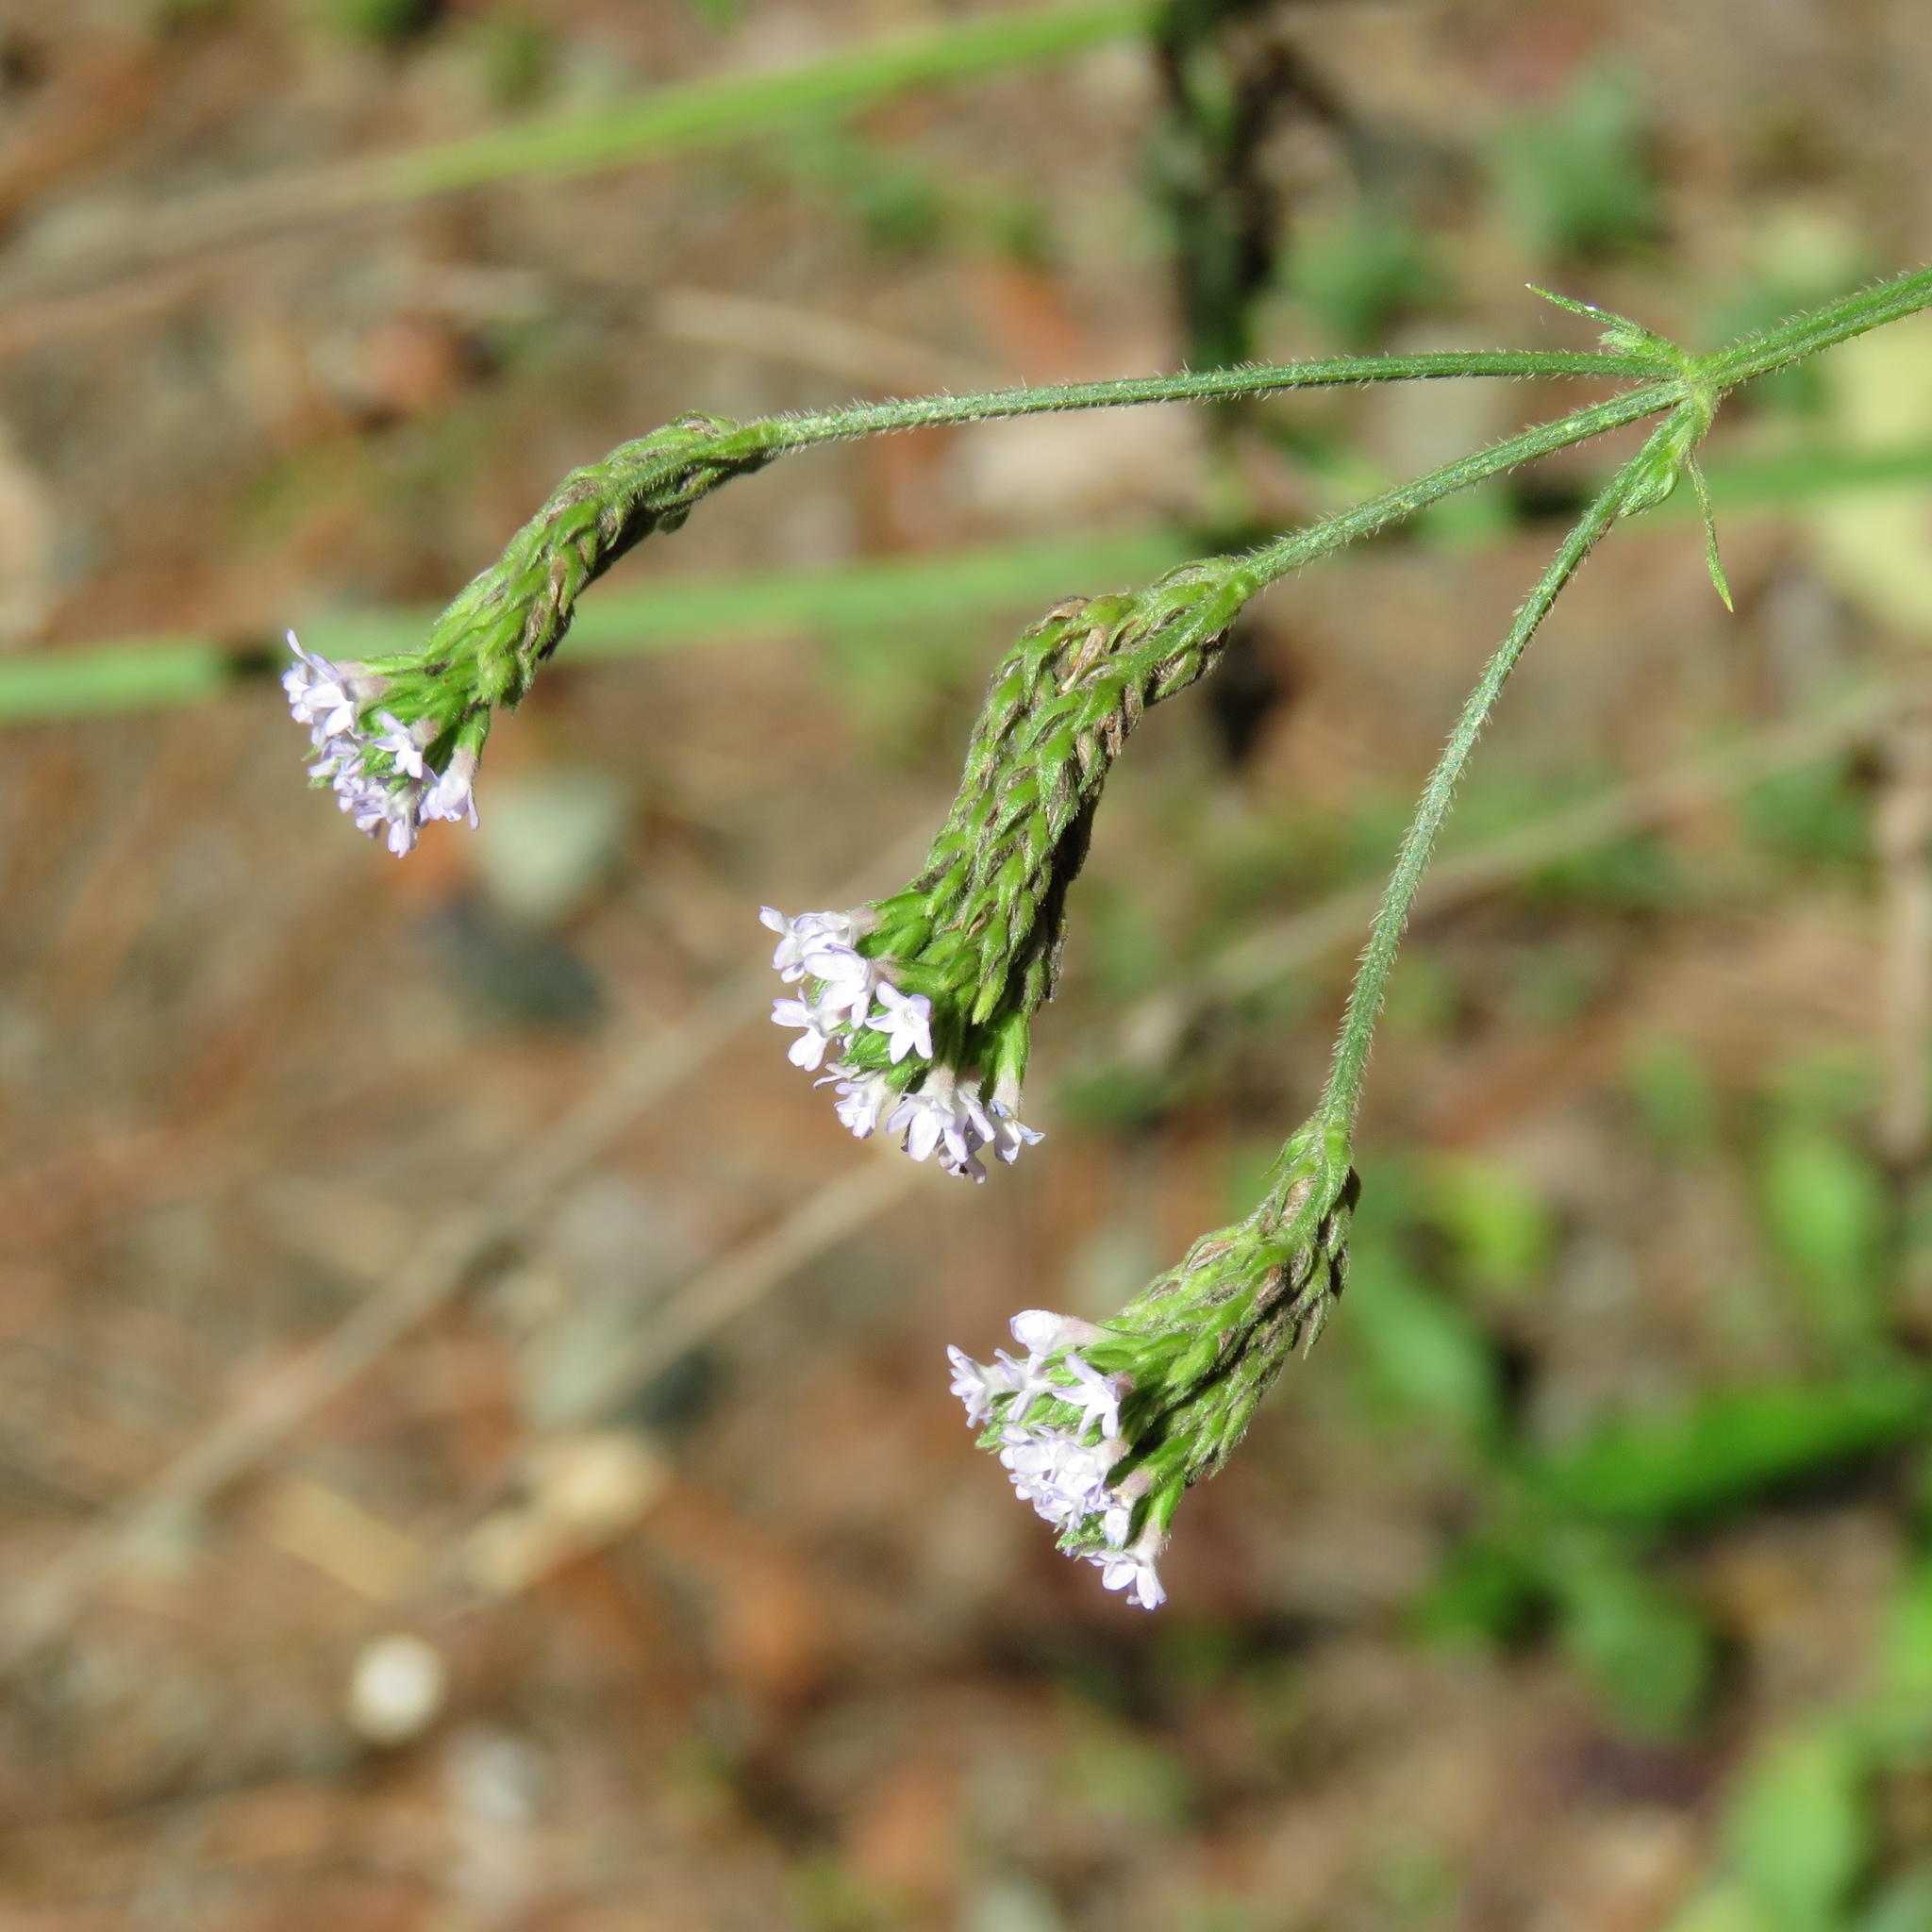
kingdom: Plantae
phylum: Tracheophyta
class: Magnoliopsida
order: Lamiales
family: Verbenaceae
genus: Verbena
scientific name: Verbena brasiliensis
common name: Brazilian vervain
